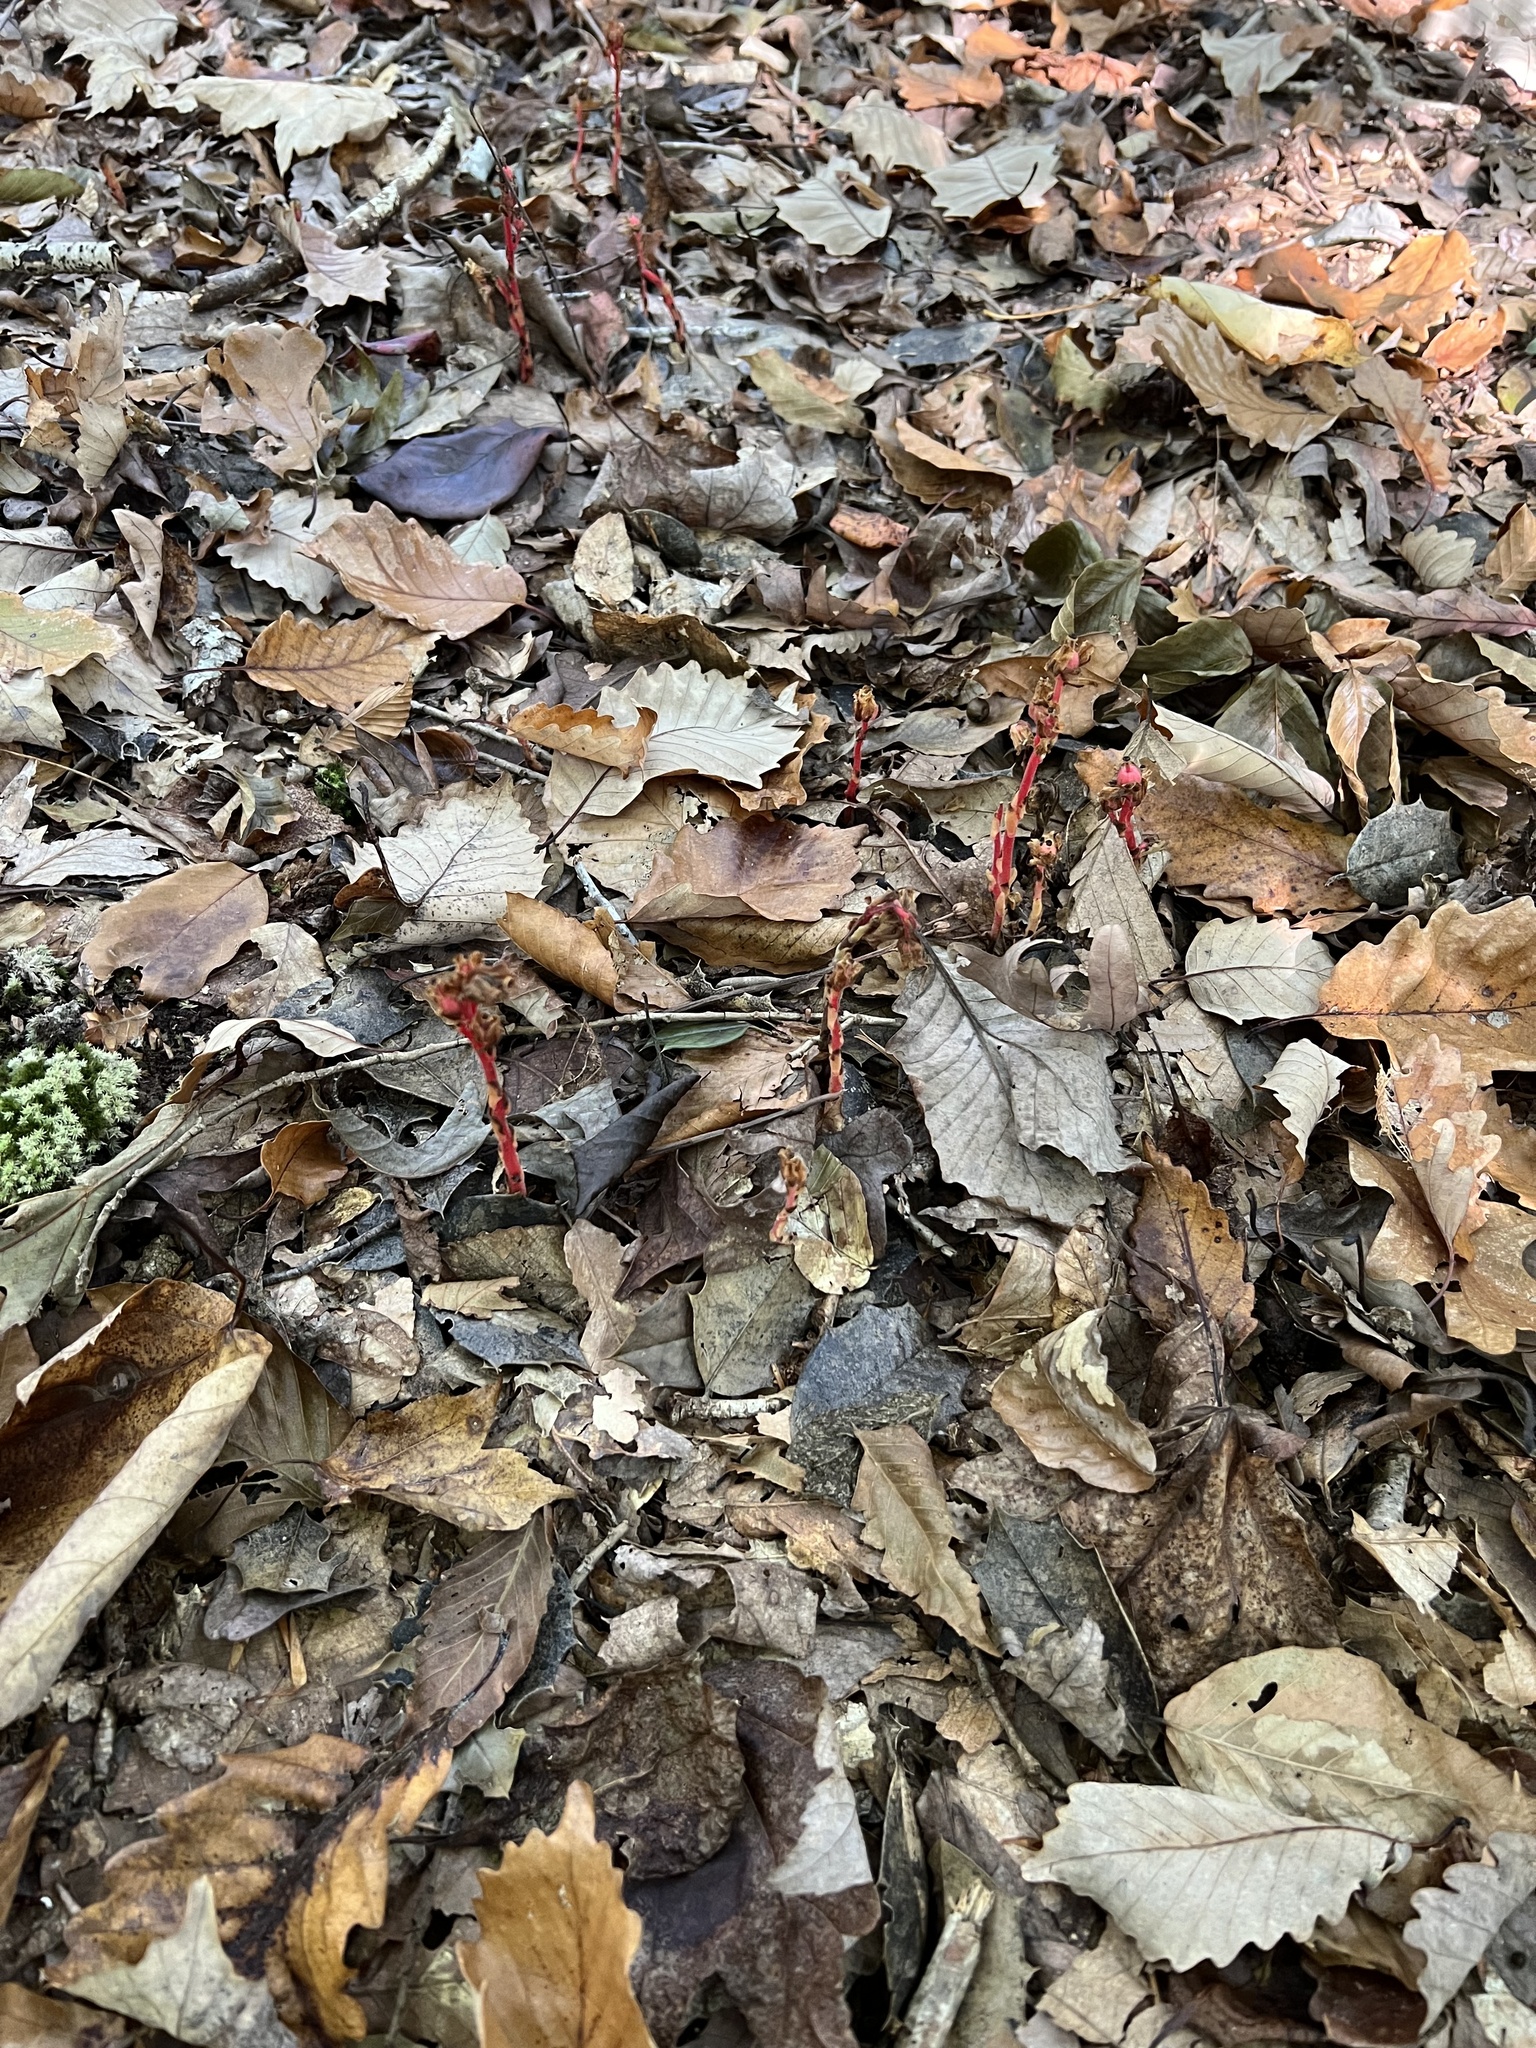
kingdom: Plantae
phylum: Tracheophyta
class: Magnoliopsida
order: Ericales
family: Ericaceae
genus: Hypopitys
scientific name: Hypopitys monotropa
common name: Yellow bird's-nest
